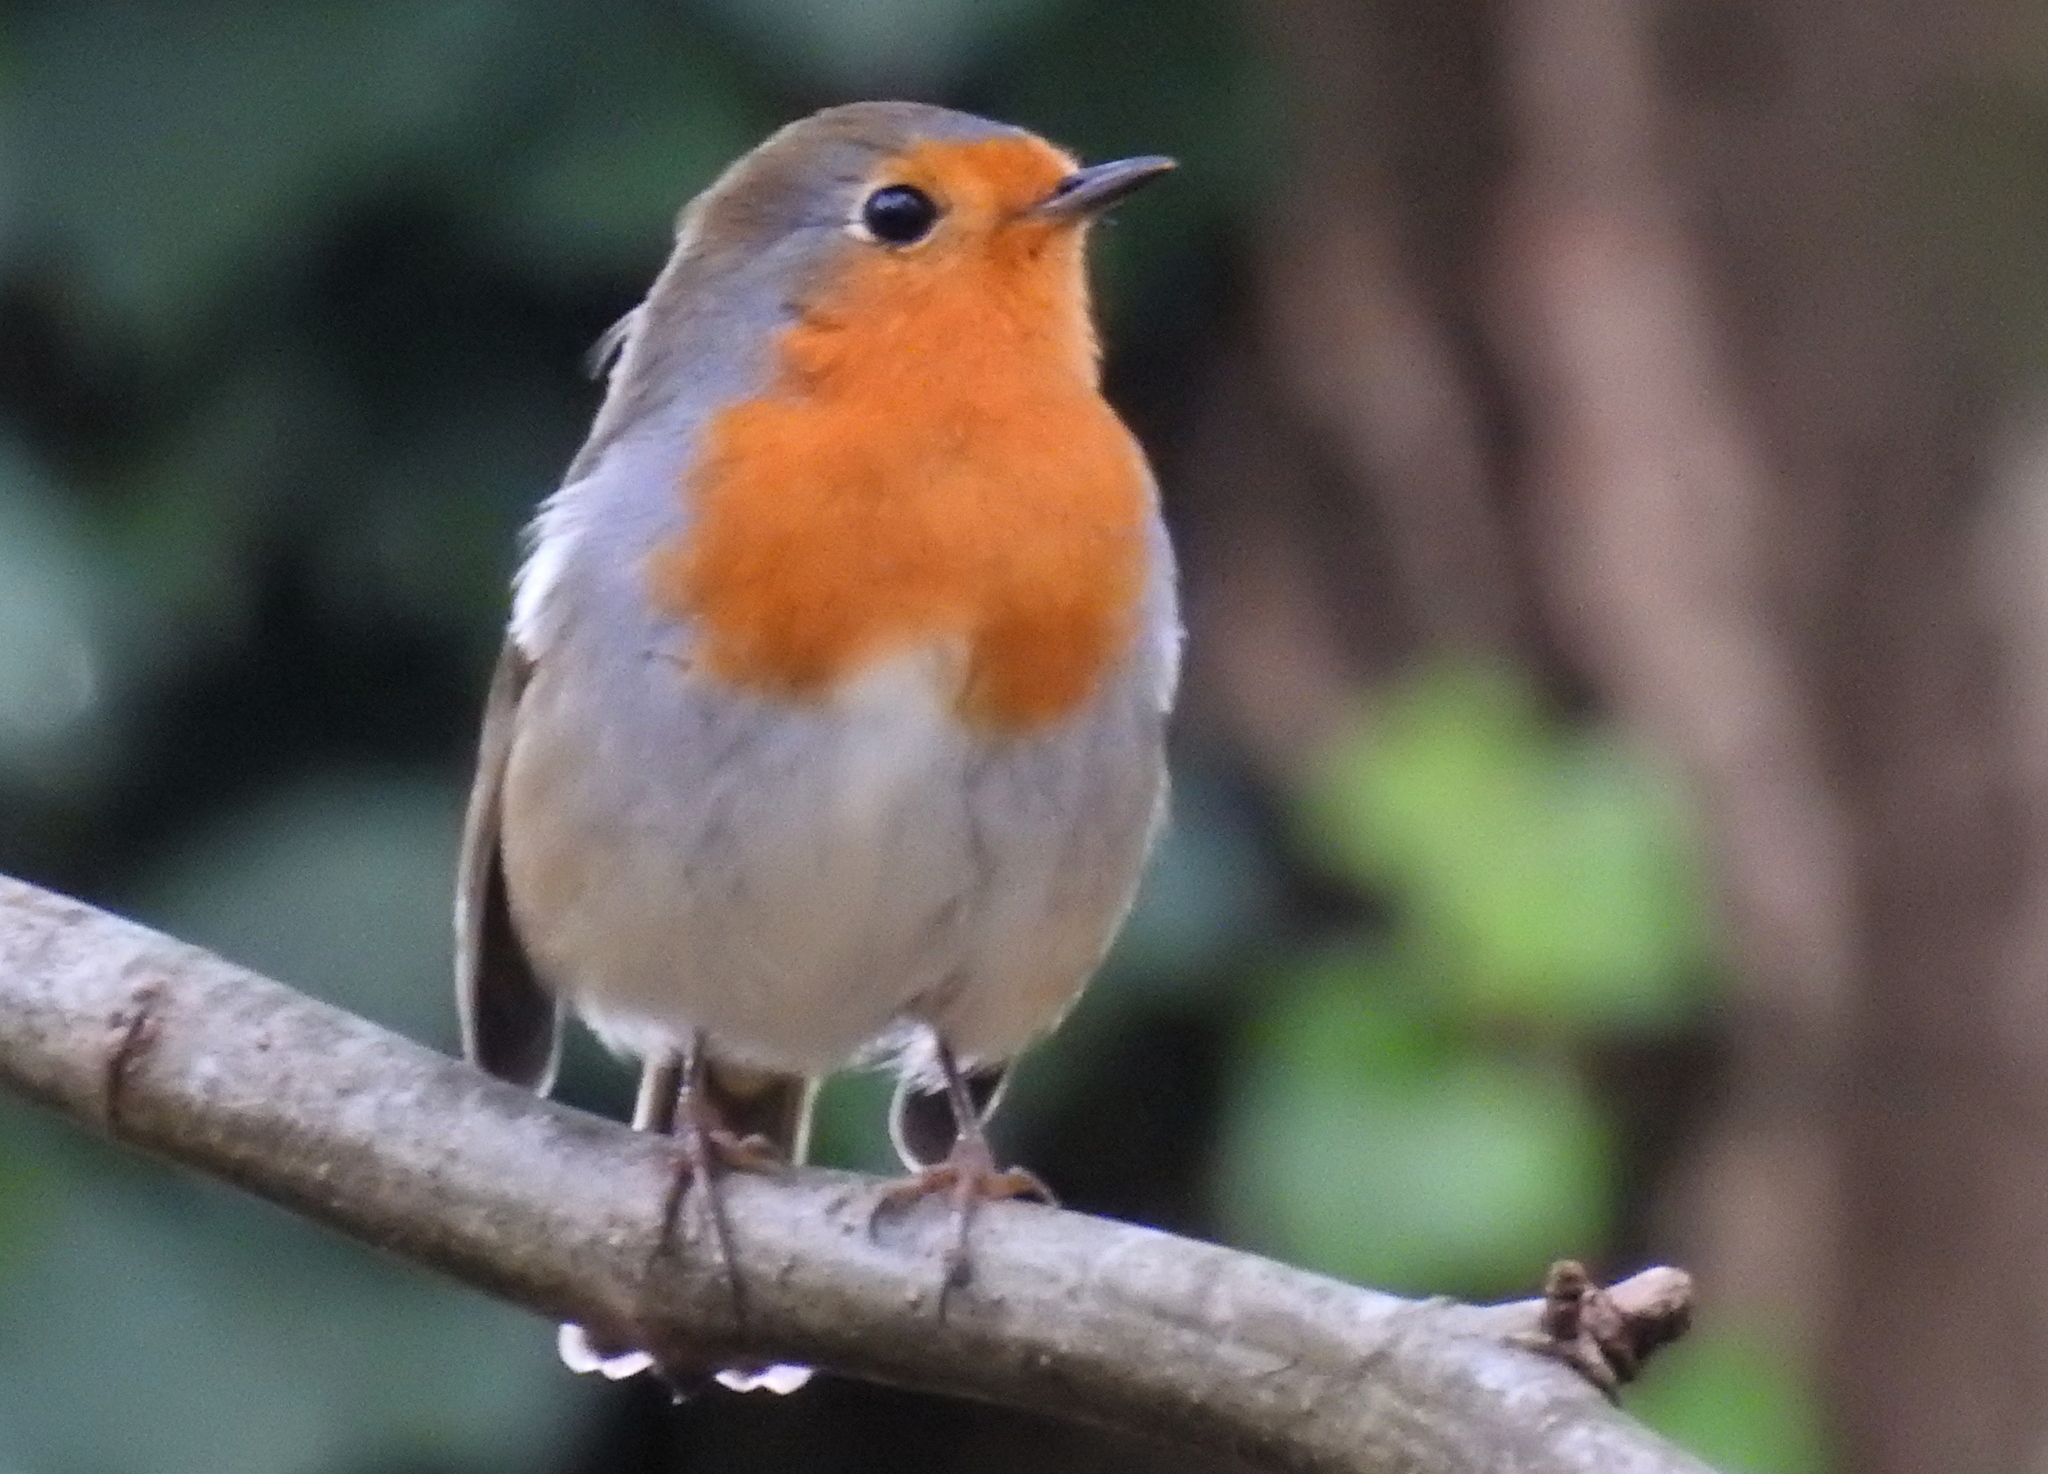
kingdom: Animalia
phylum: Chordata
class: Aves
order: Passeriformes
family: Muscicapidae
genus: Erithacus
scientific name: Erithacus rubecula
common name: European robin
